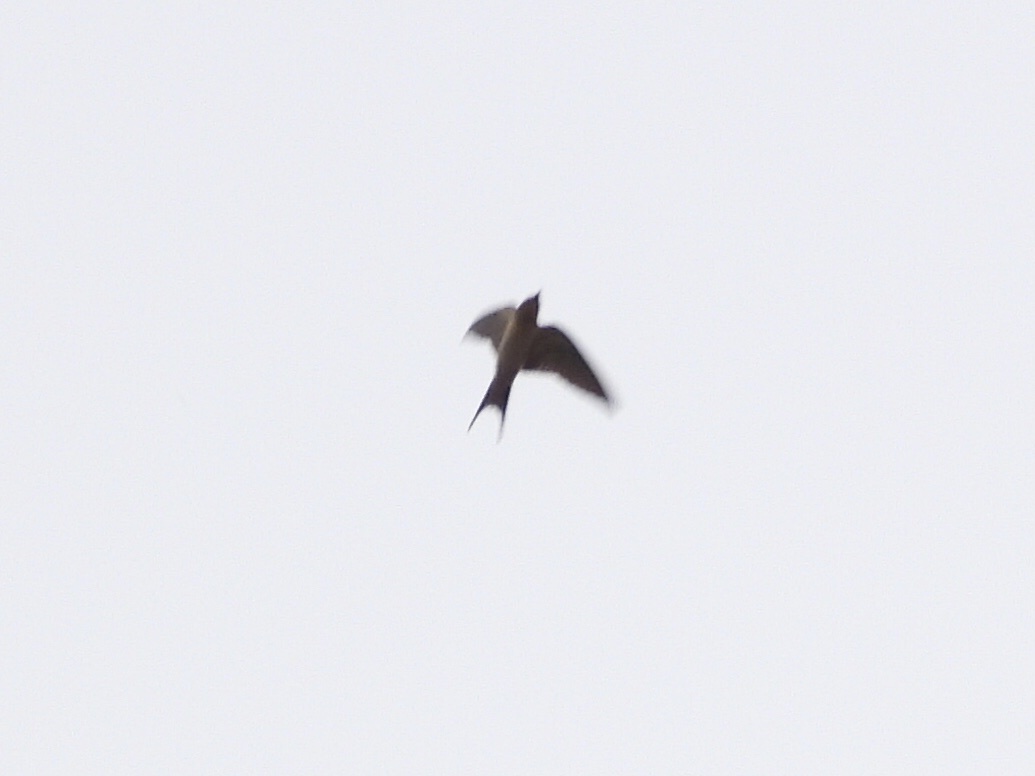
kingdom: Animalia
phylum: Chordata
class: Aves
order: Passeriformes
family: Hirundinidae
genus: Hirundo
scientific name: Hirundo rustica
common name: Barn swallow
